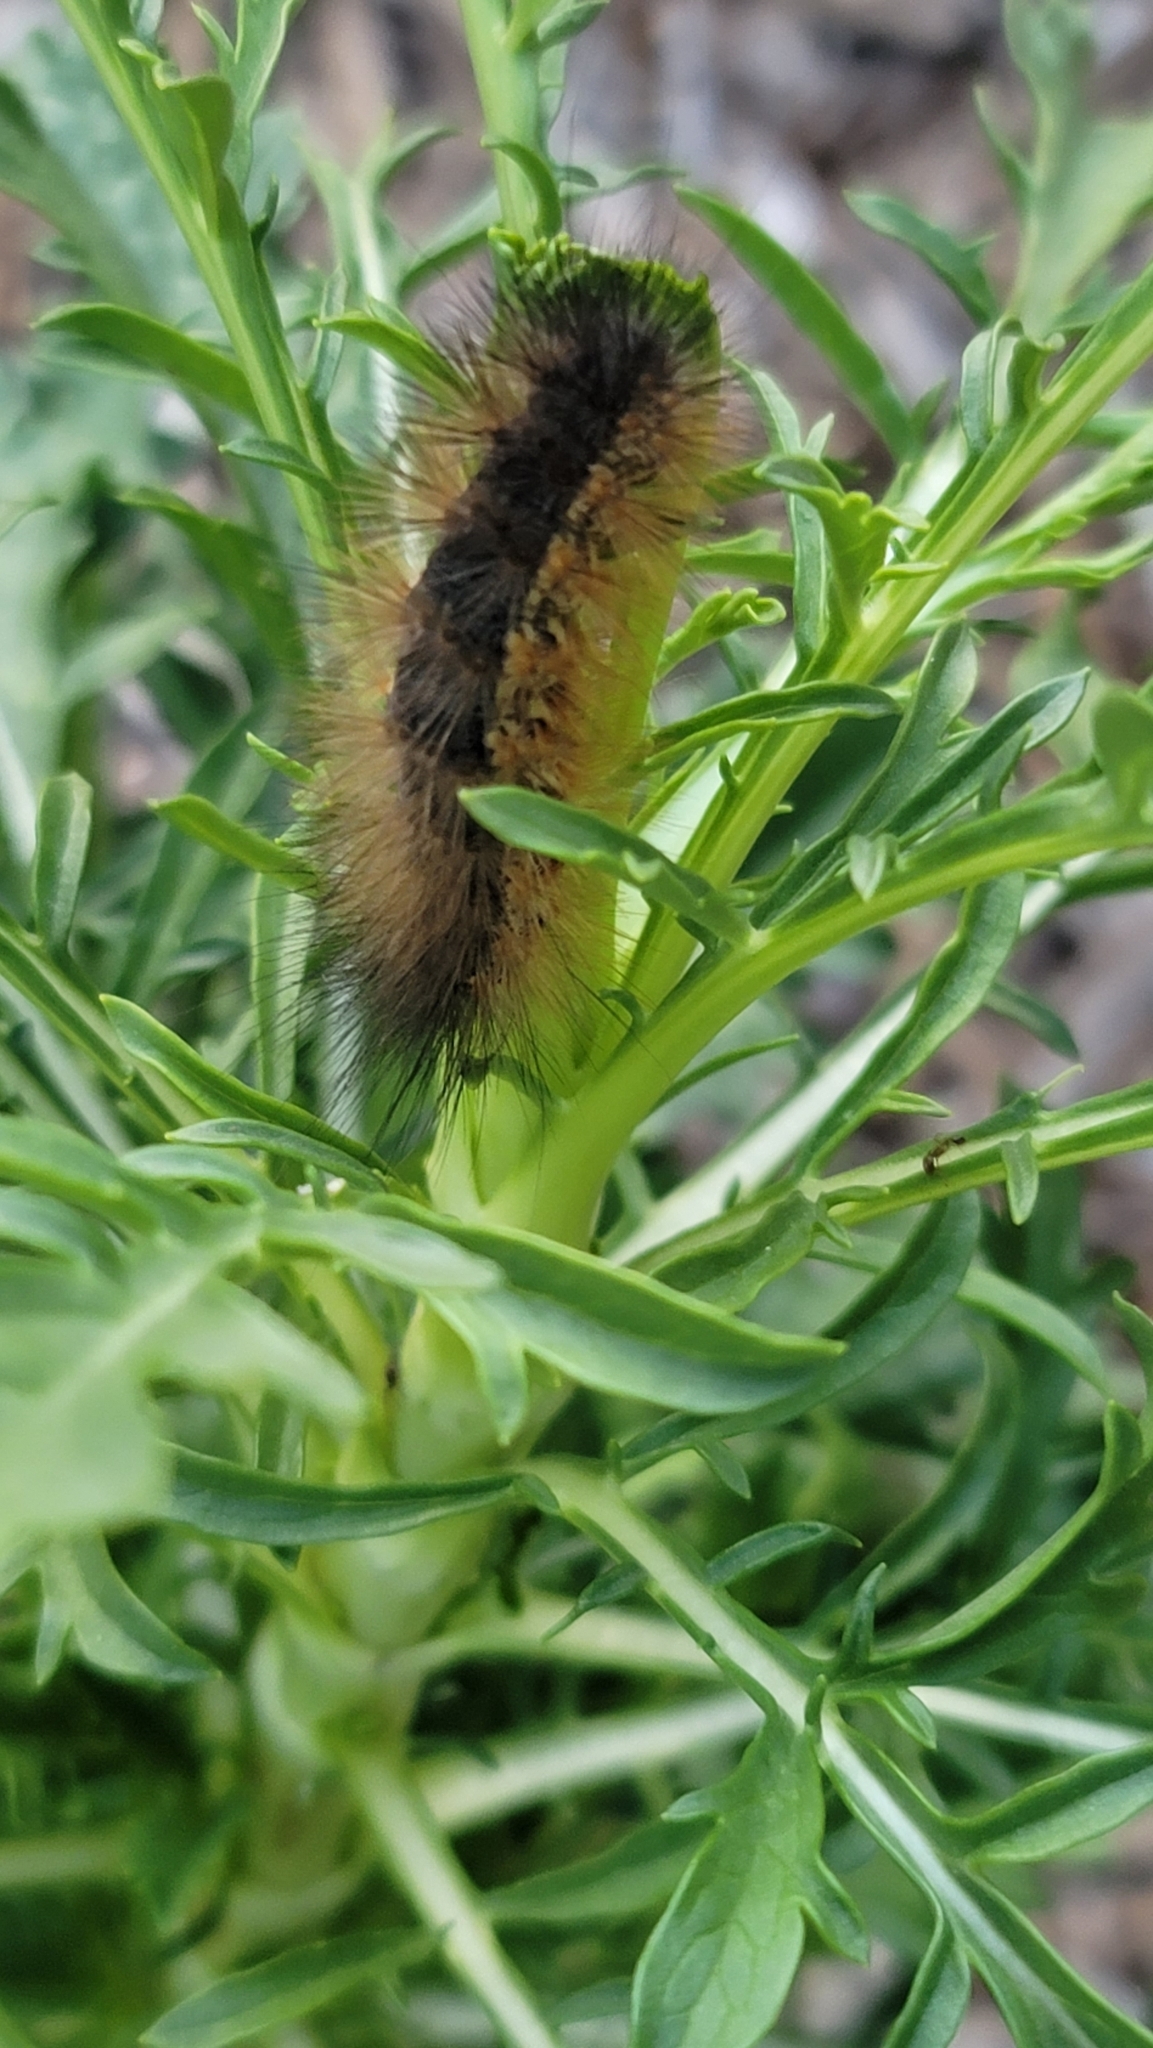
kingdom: Animalia
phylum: Arthropoda
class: Insecta
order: Lepidoptera
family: Erebidae
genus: Estigmene
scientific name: Estigmene acrea
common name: Salt marsh moth
